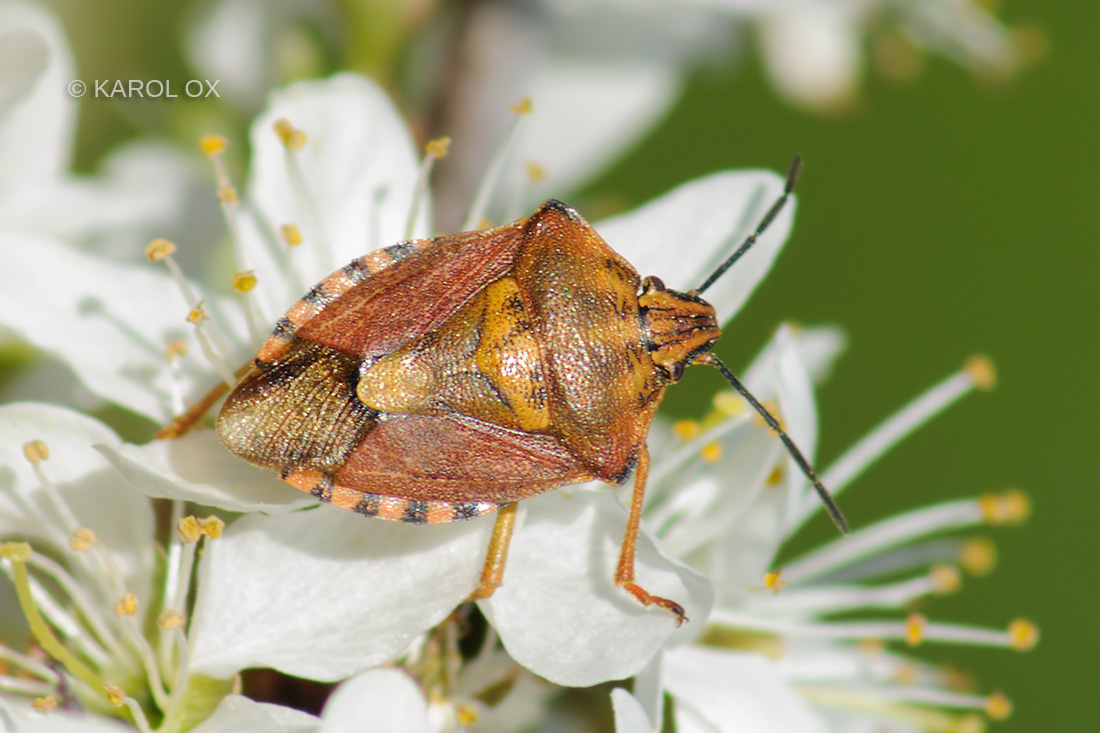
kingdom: Animalia
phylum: Arthropoda
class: Insecta
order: Hemiptera
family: Pentatomidae
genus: Carpocoris
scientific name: Carpocoris purpureipennis
